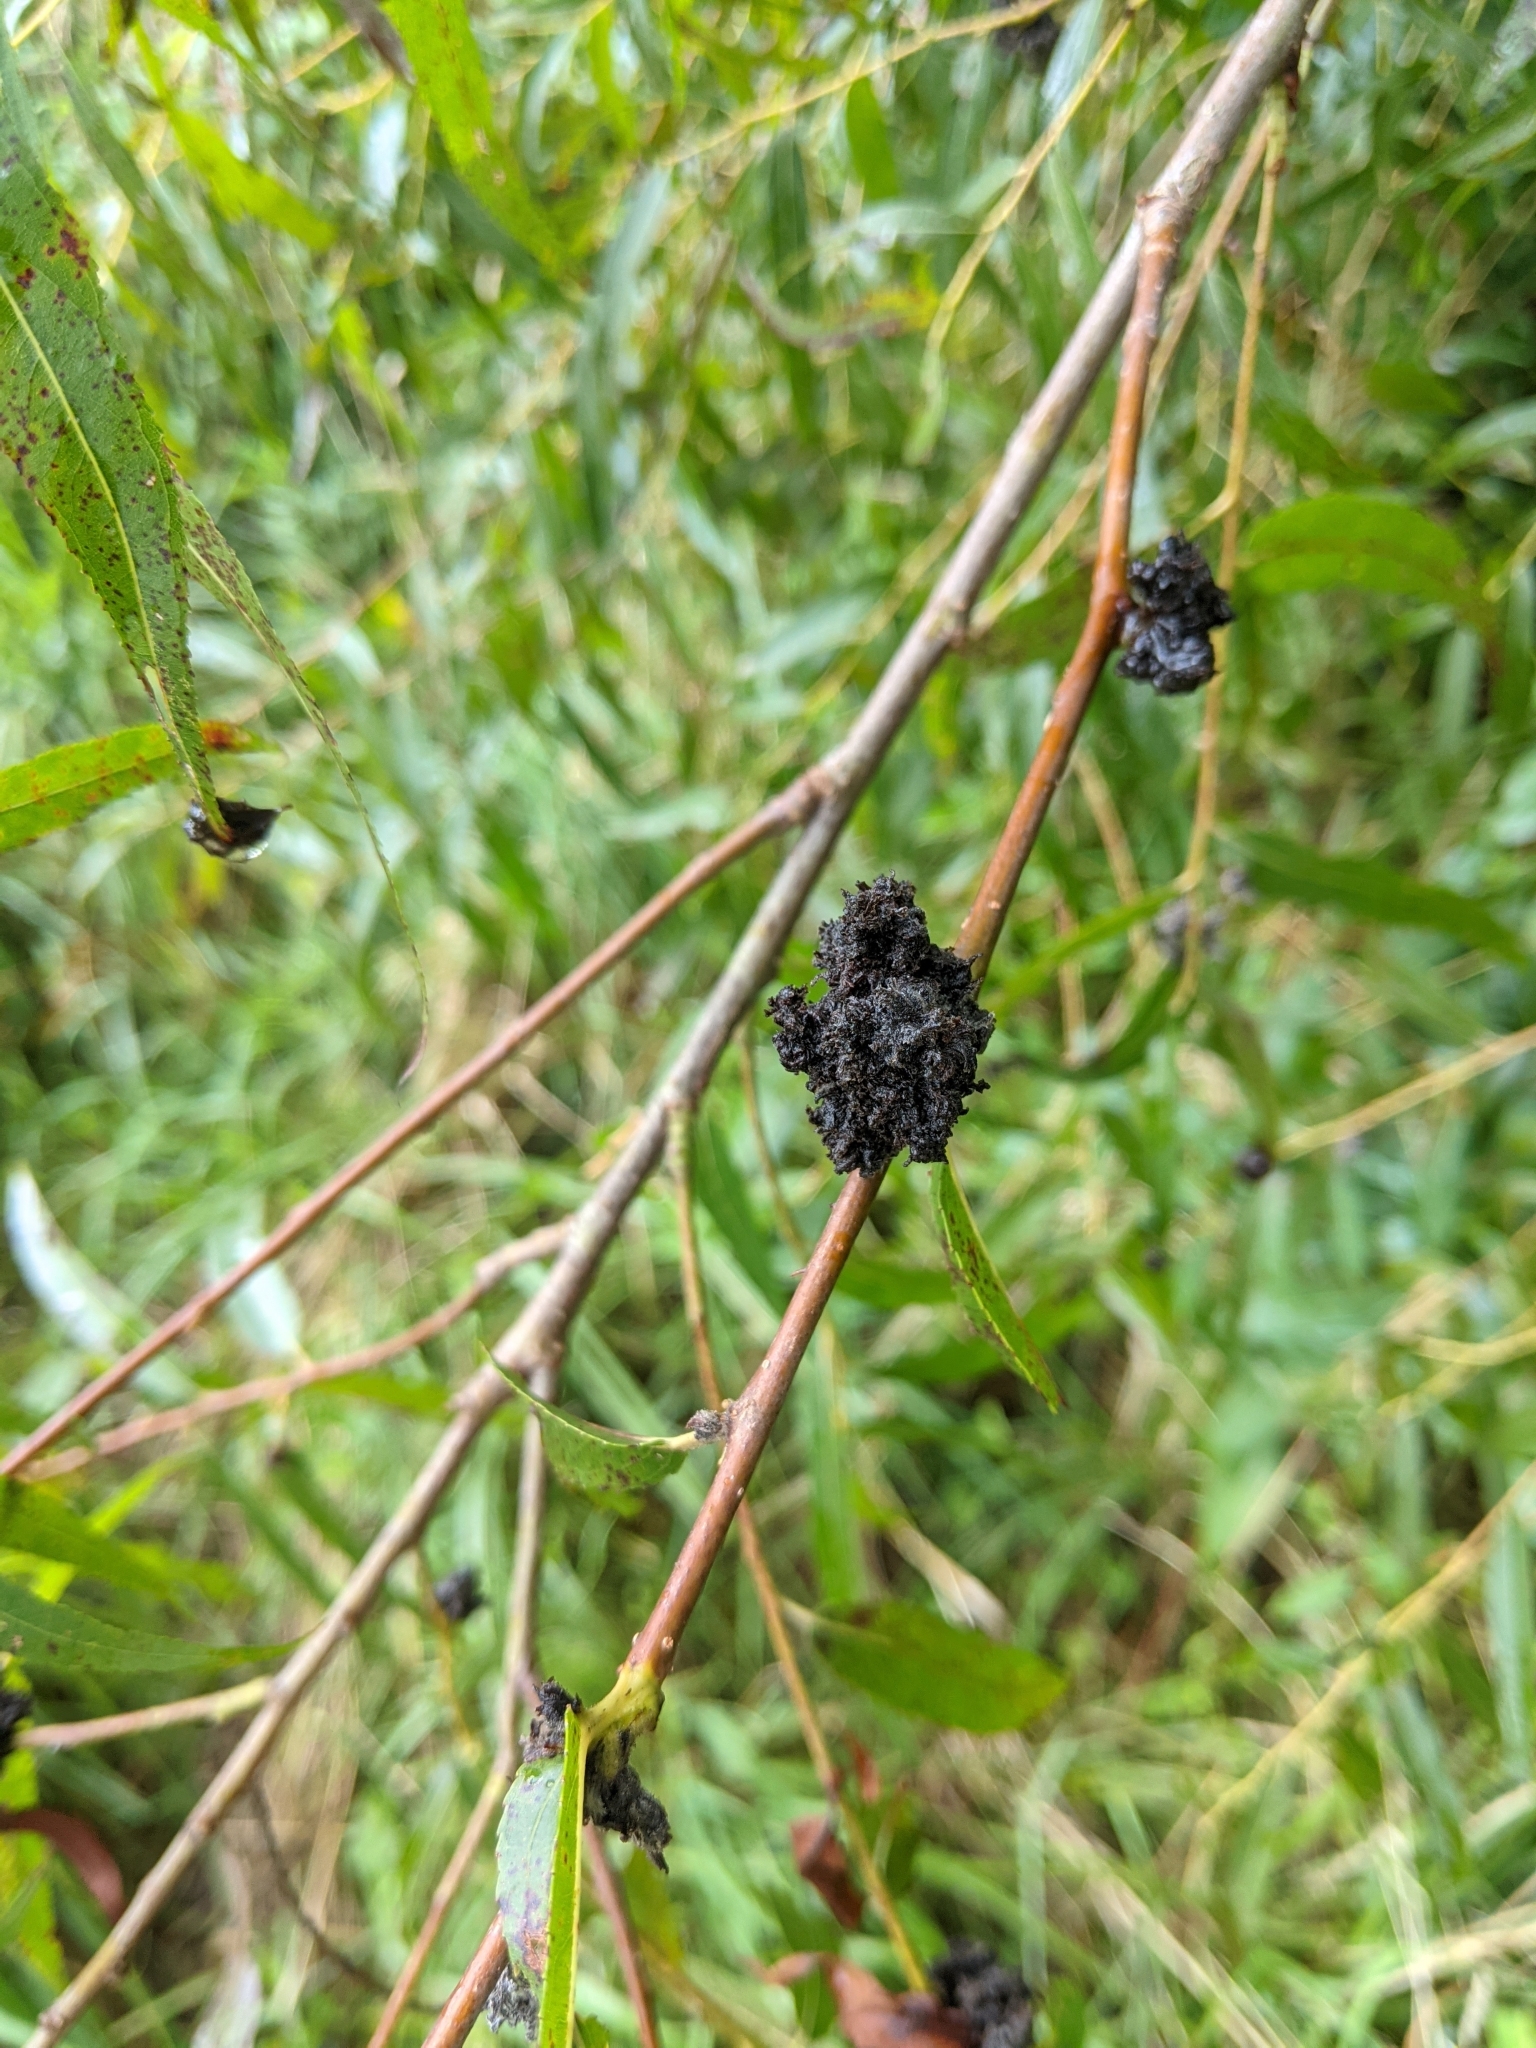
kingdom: Animalia
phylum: Arthropoda
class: Arachnida
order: Trombidiformes
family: Eriophyidae
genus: Aculops
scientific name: Aculops
